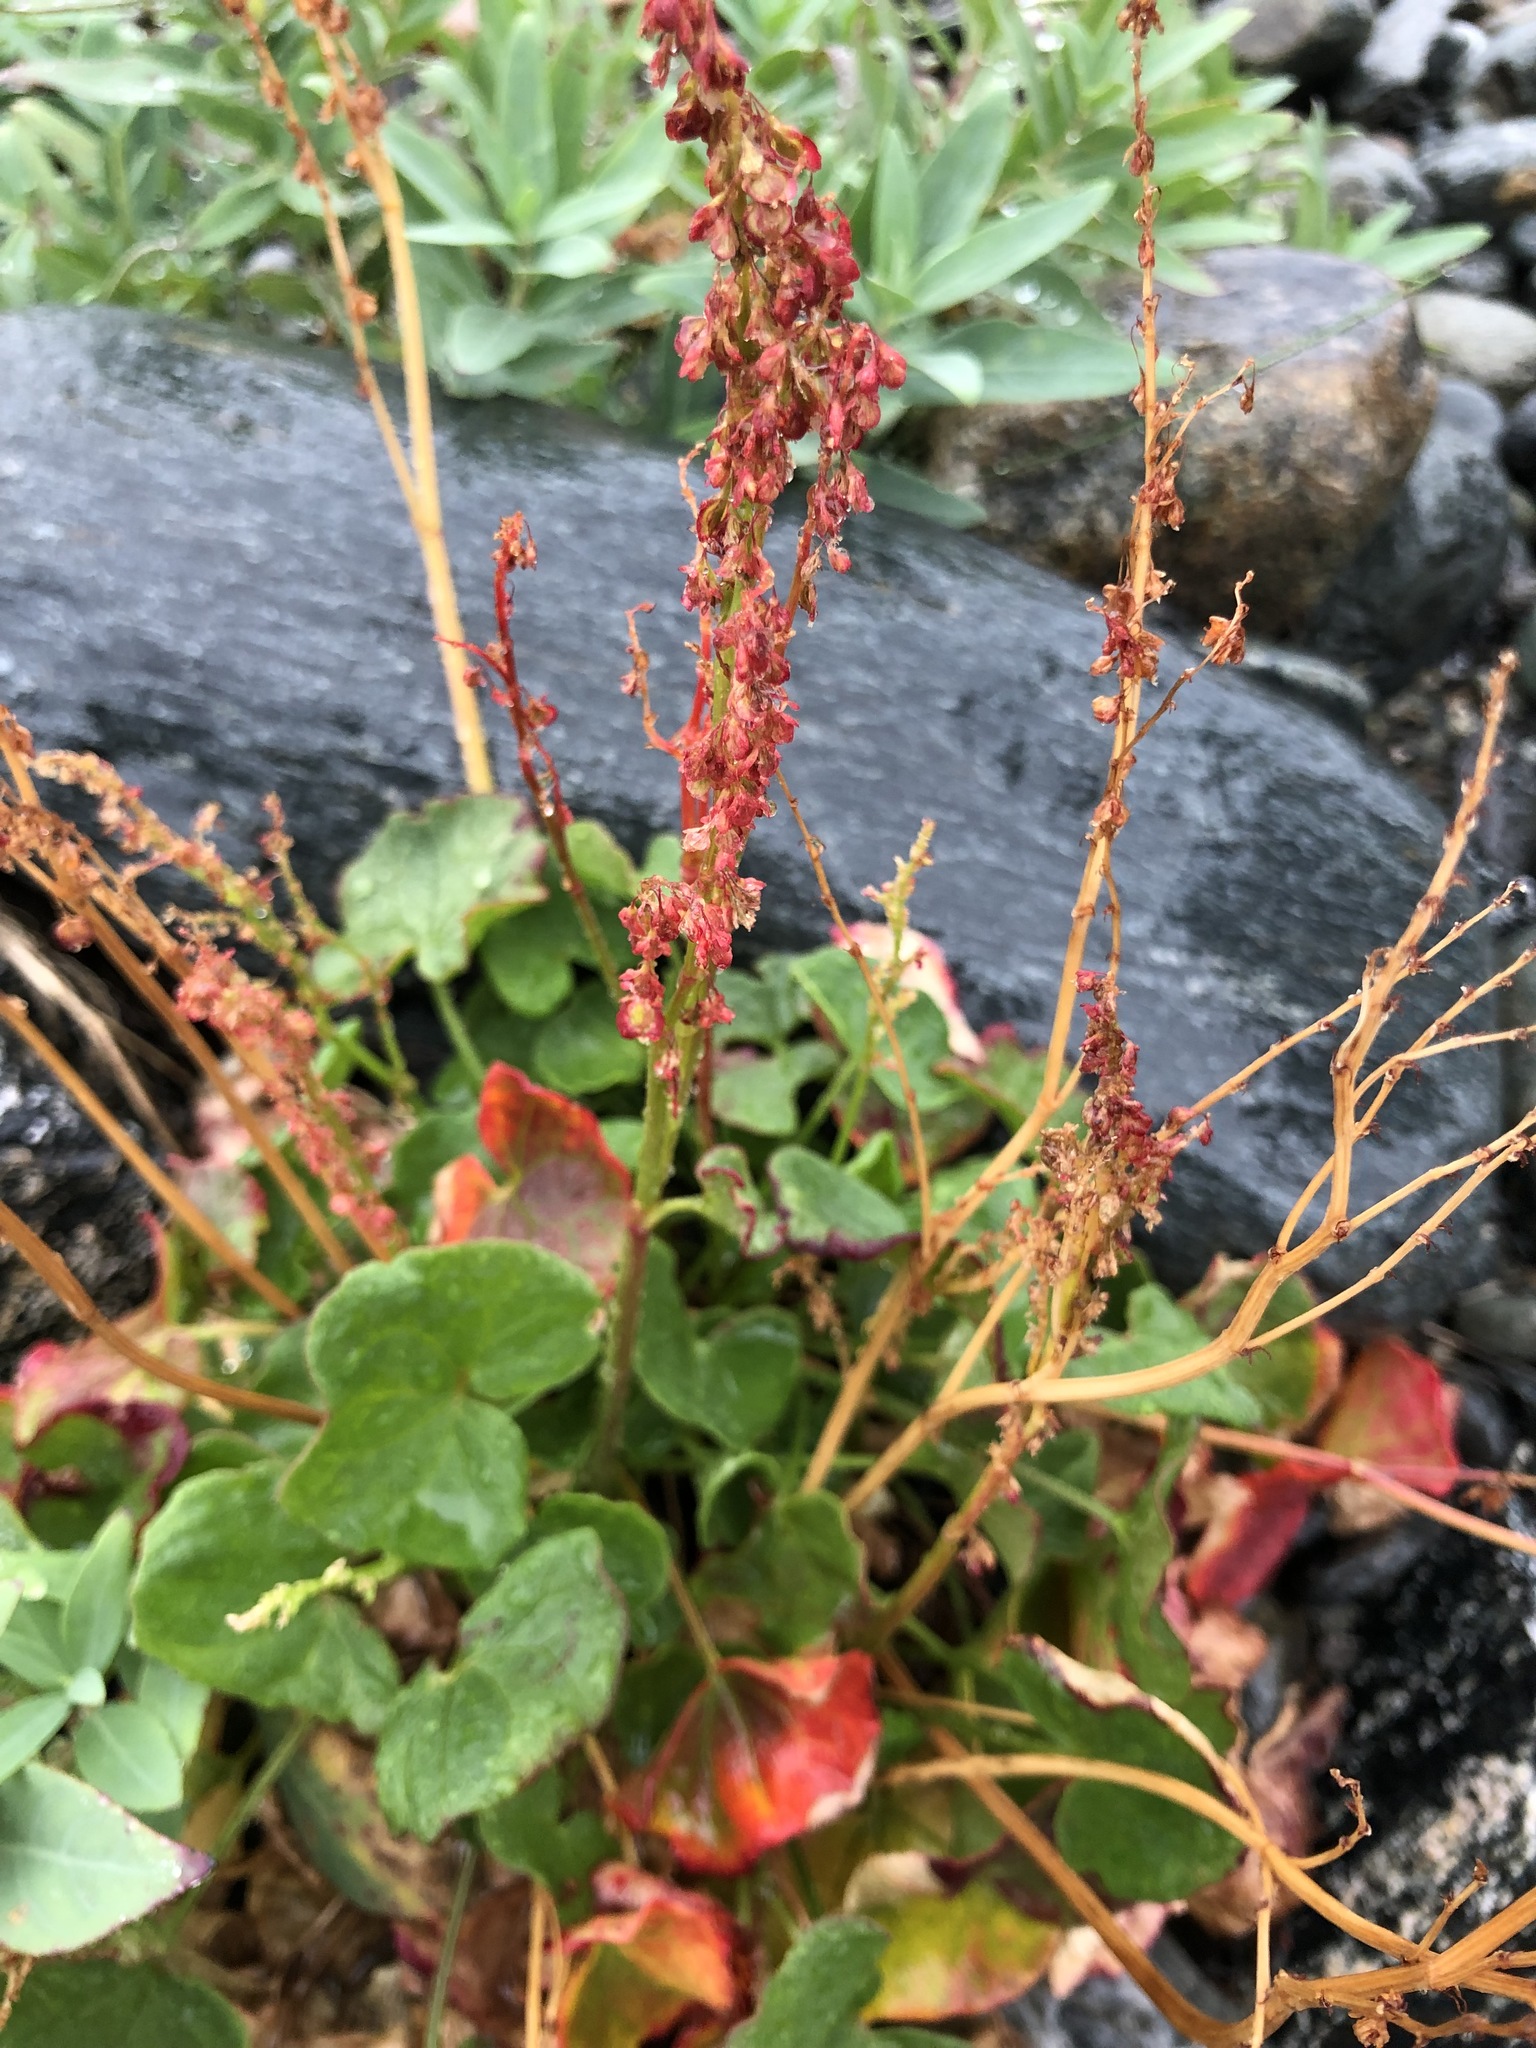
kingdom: Plantae
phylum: Tracheophyta
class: Magnoliopsida
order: Caryophyllales
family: Polygonaceae
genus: Oxyria
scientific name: Oxyria digyna
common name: Alpine mountain-sorrel
